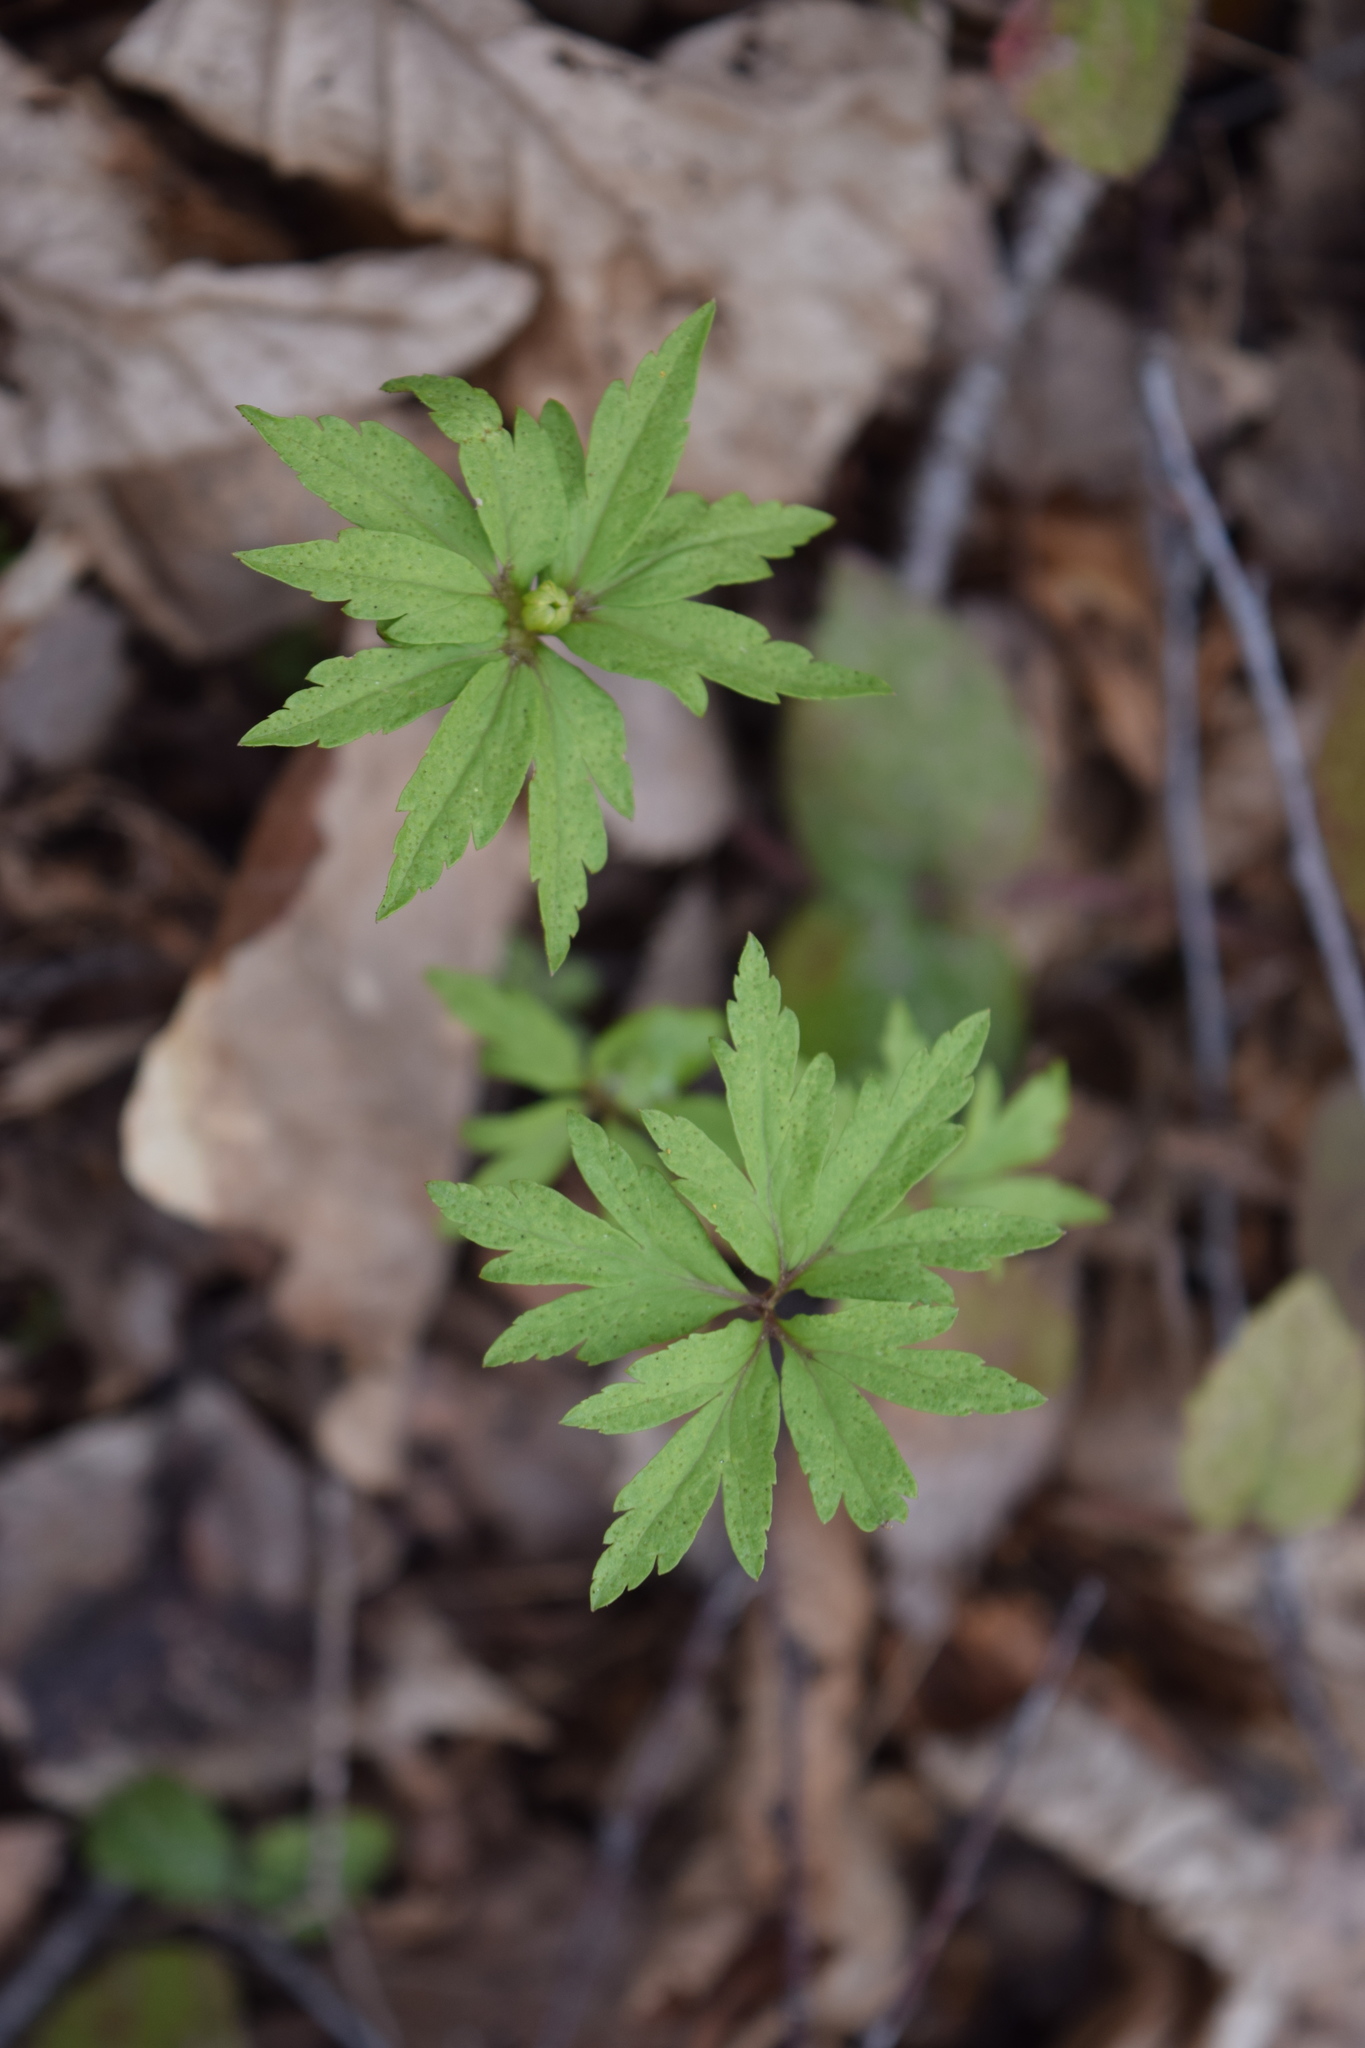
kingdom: Plantae
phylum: Tracheophyta
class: Magnoliopsida
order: Ranunculales
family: Ranunculaceae
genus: Anemone
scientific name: Anemone ranunculoides
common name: Yellow anemone
